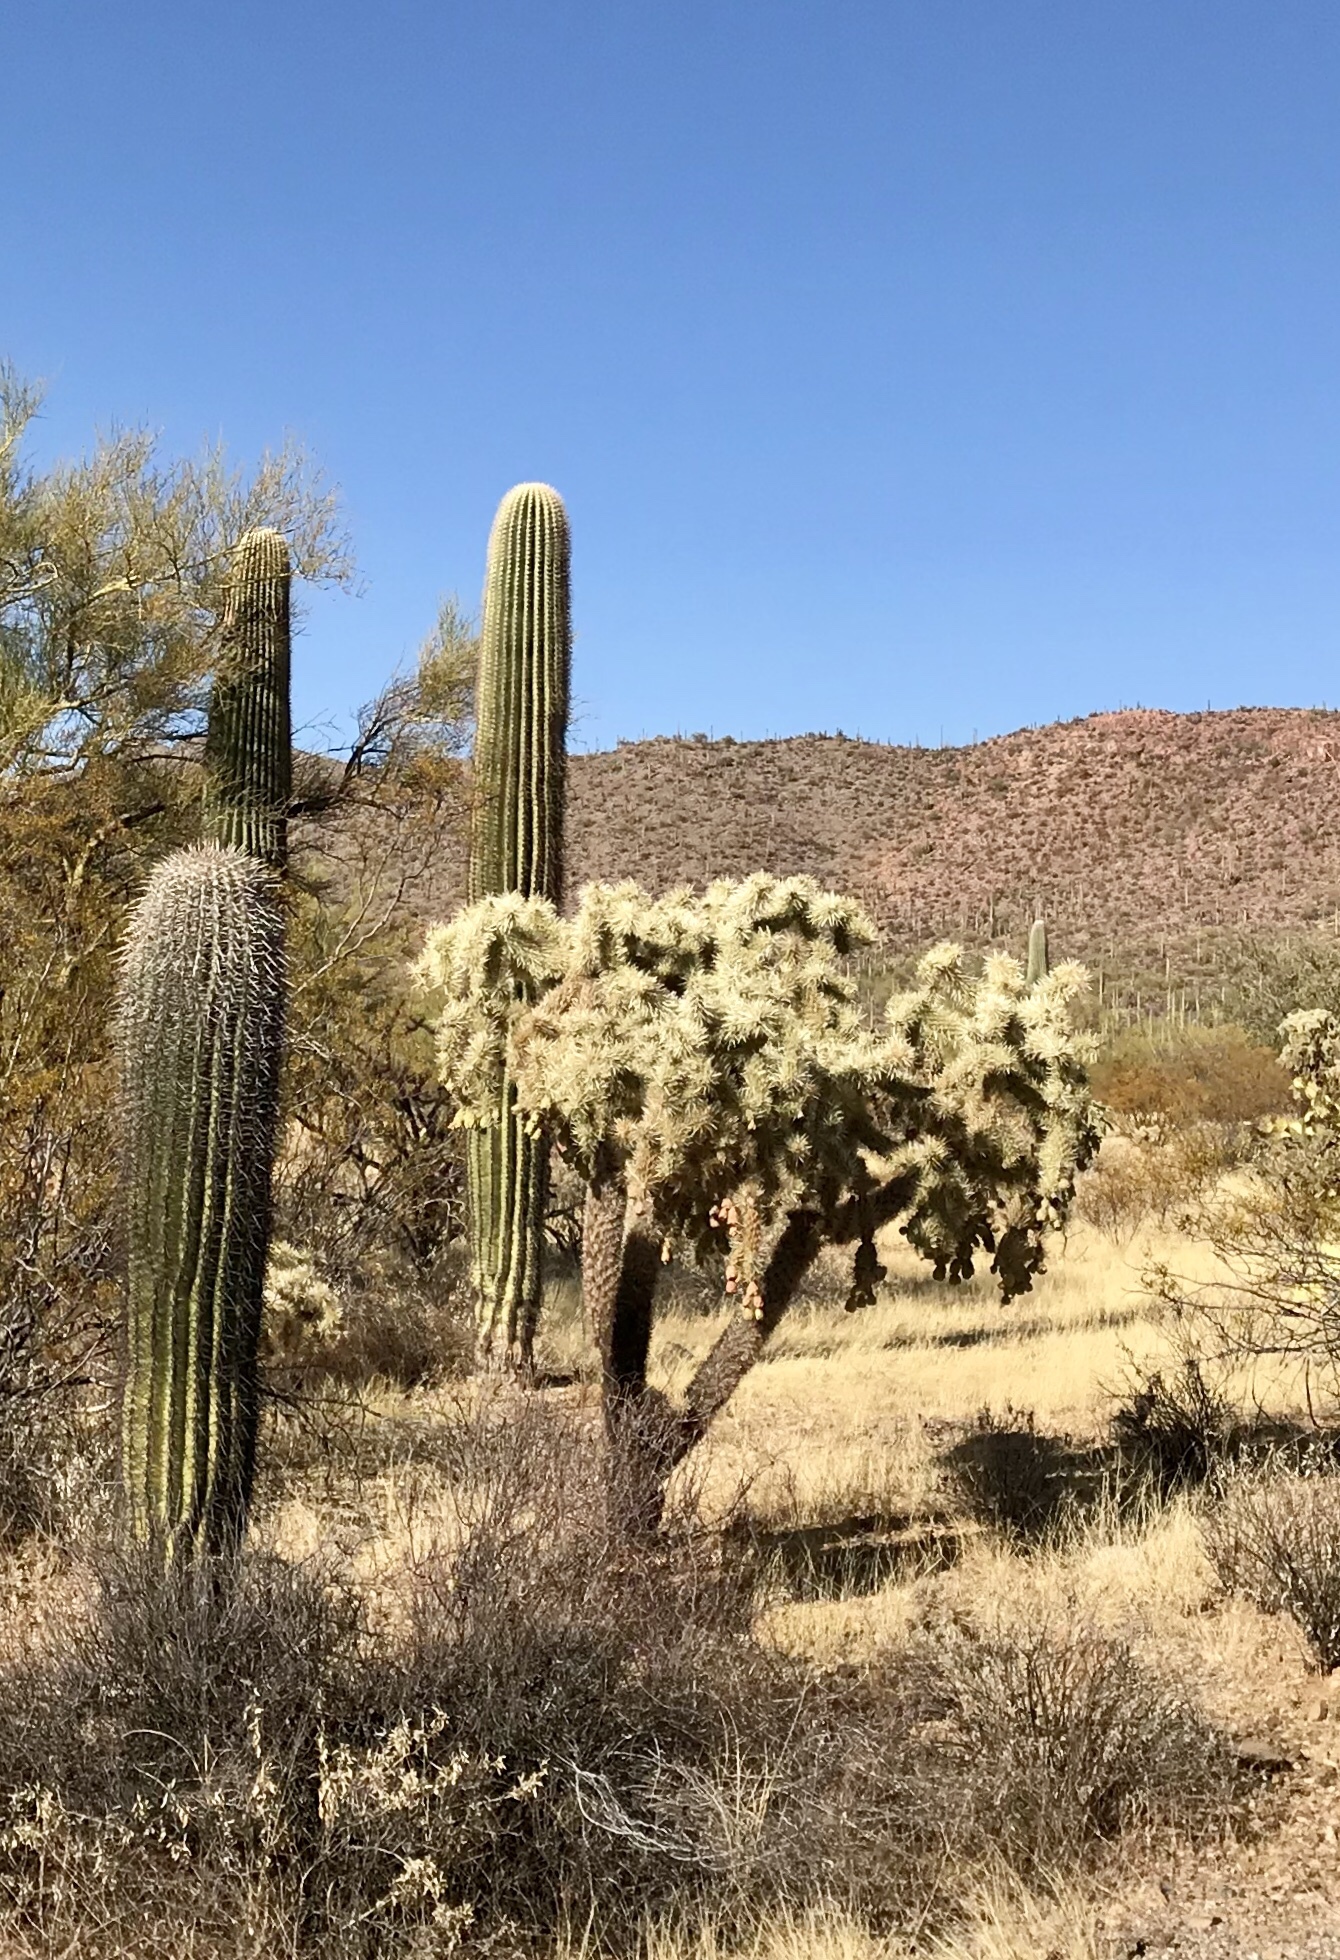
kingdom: Plantae
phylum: Tracheophyta
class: Magnoliopsida
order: Caryophyllales
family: Cactaceae
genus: Cylindropuntia
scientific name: Cylindropuntia fulgida
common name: Jumping cholla
